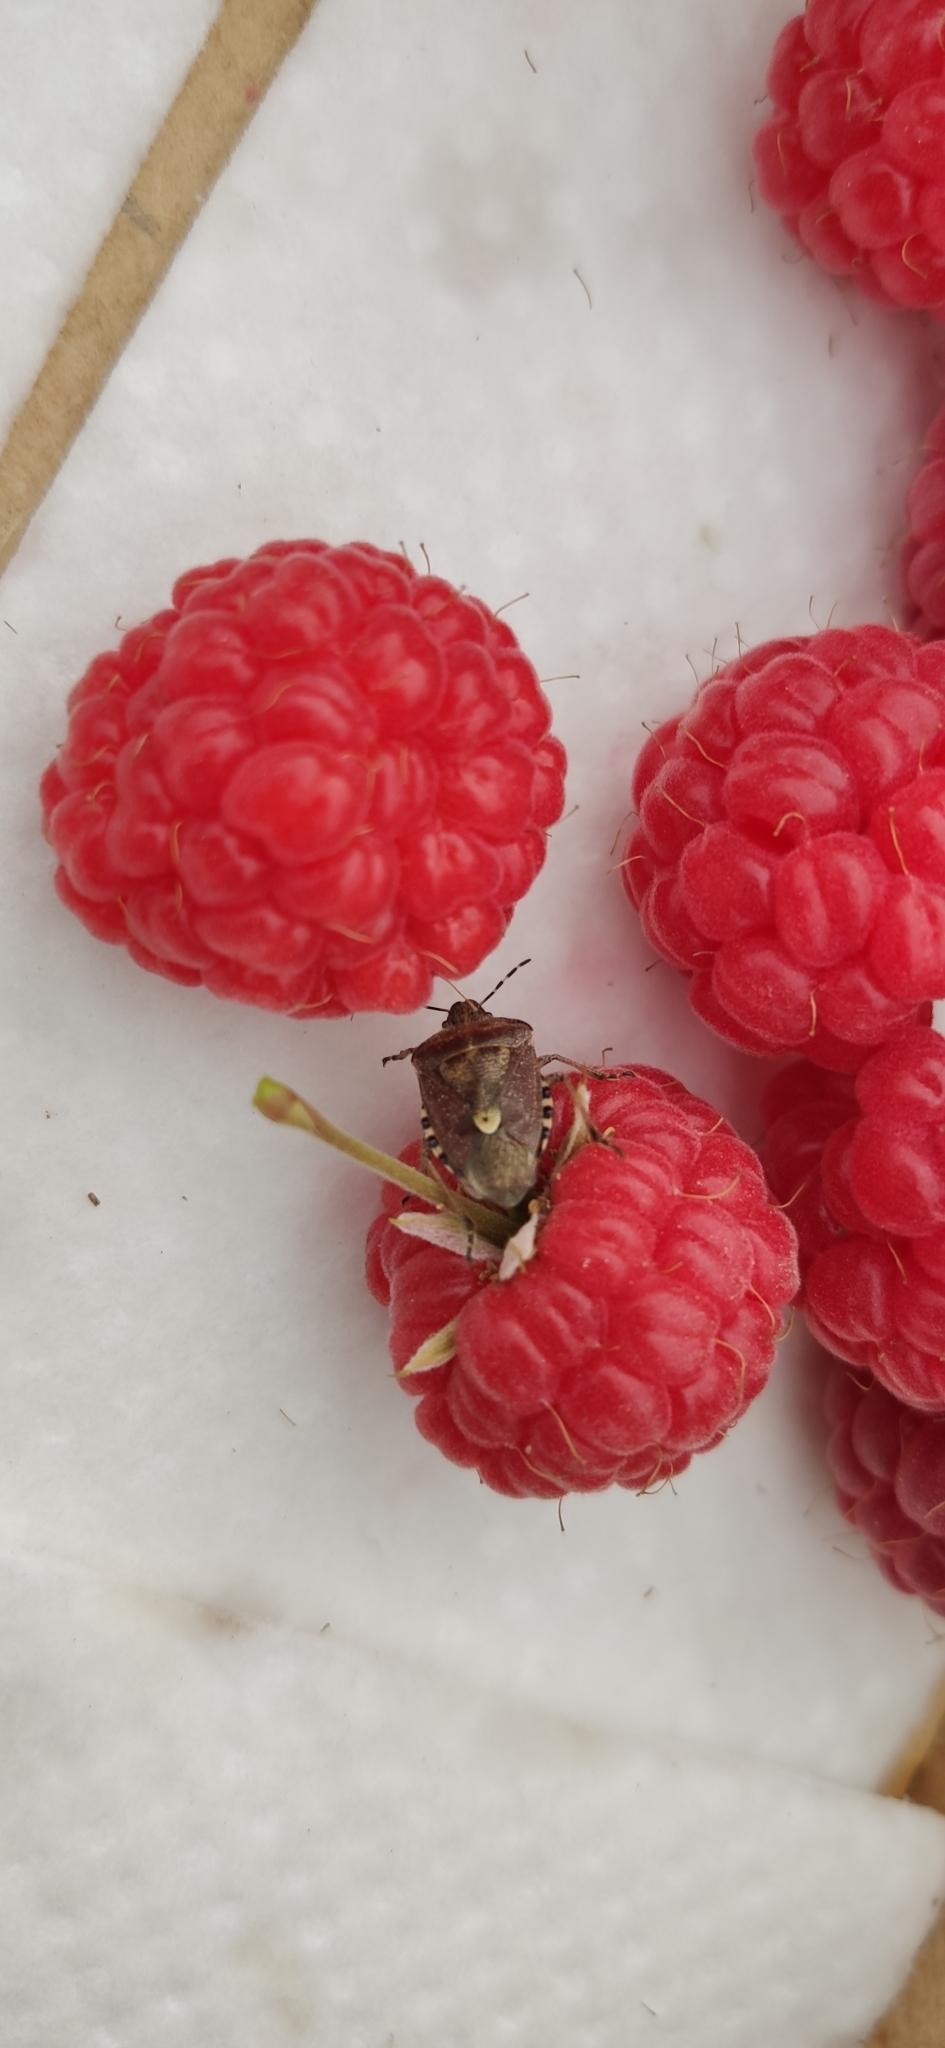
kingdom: Animalia
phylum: Arthropoda
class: Insecta
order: Hemiptera
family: Pentatomidae
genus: Dolycoris
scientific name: Dolycoris baccarum
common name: Sloe bug
